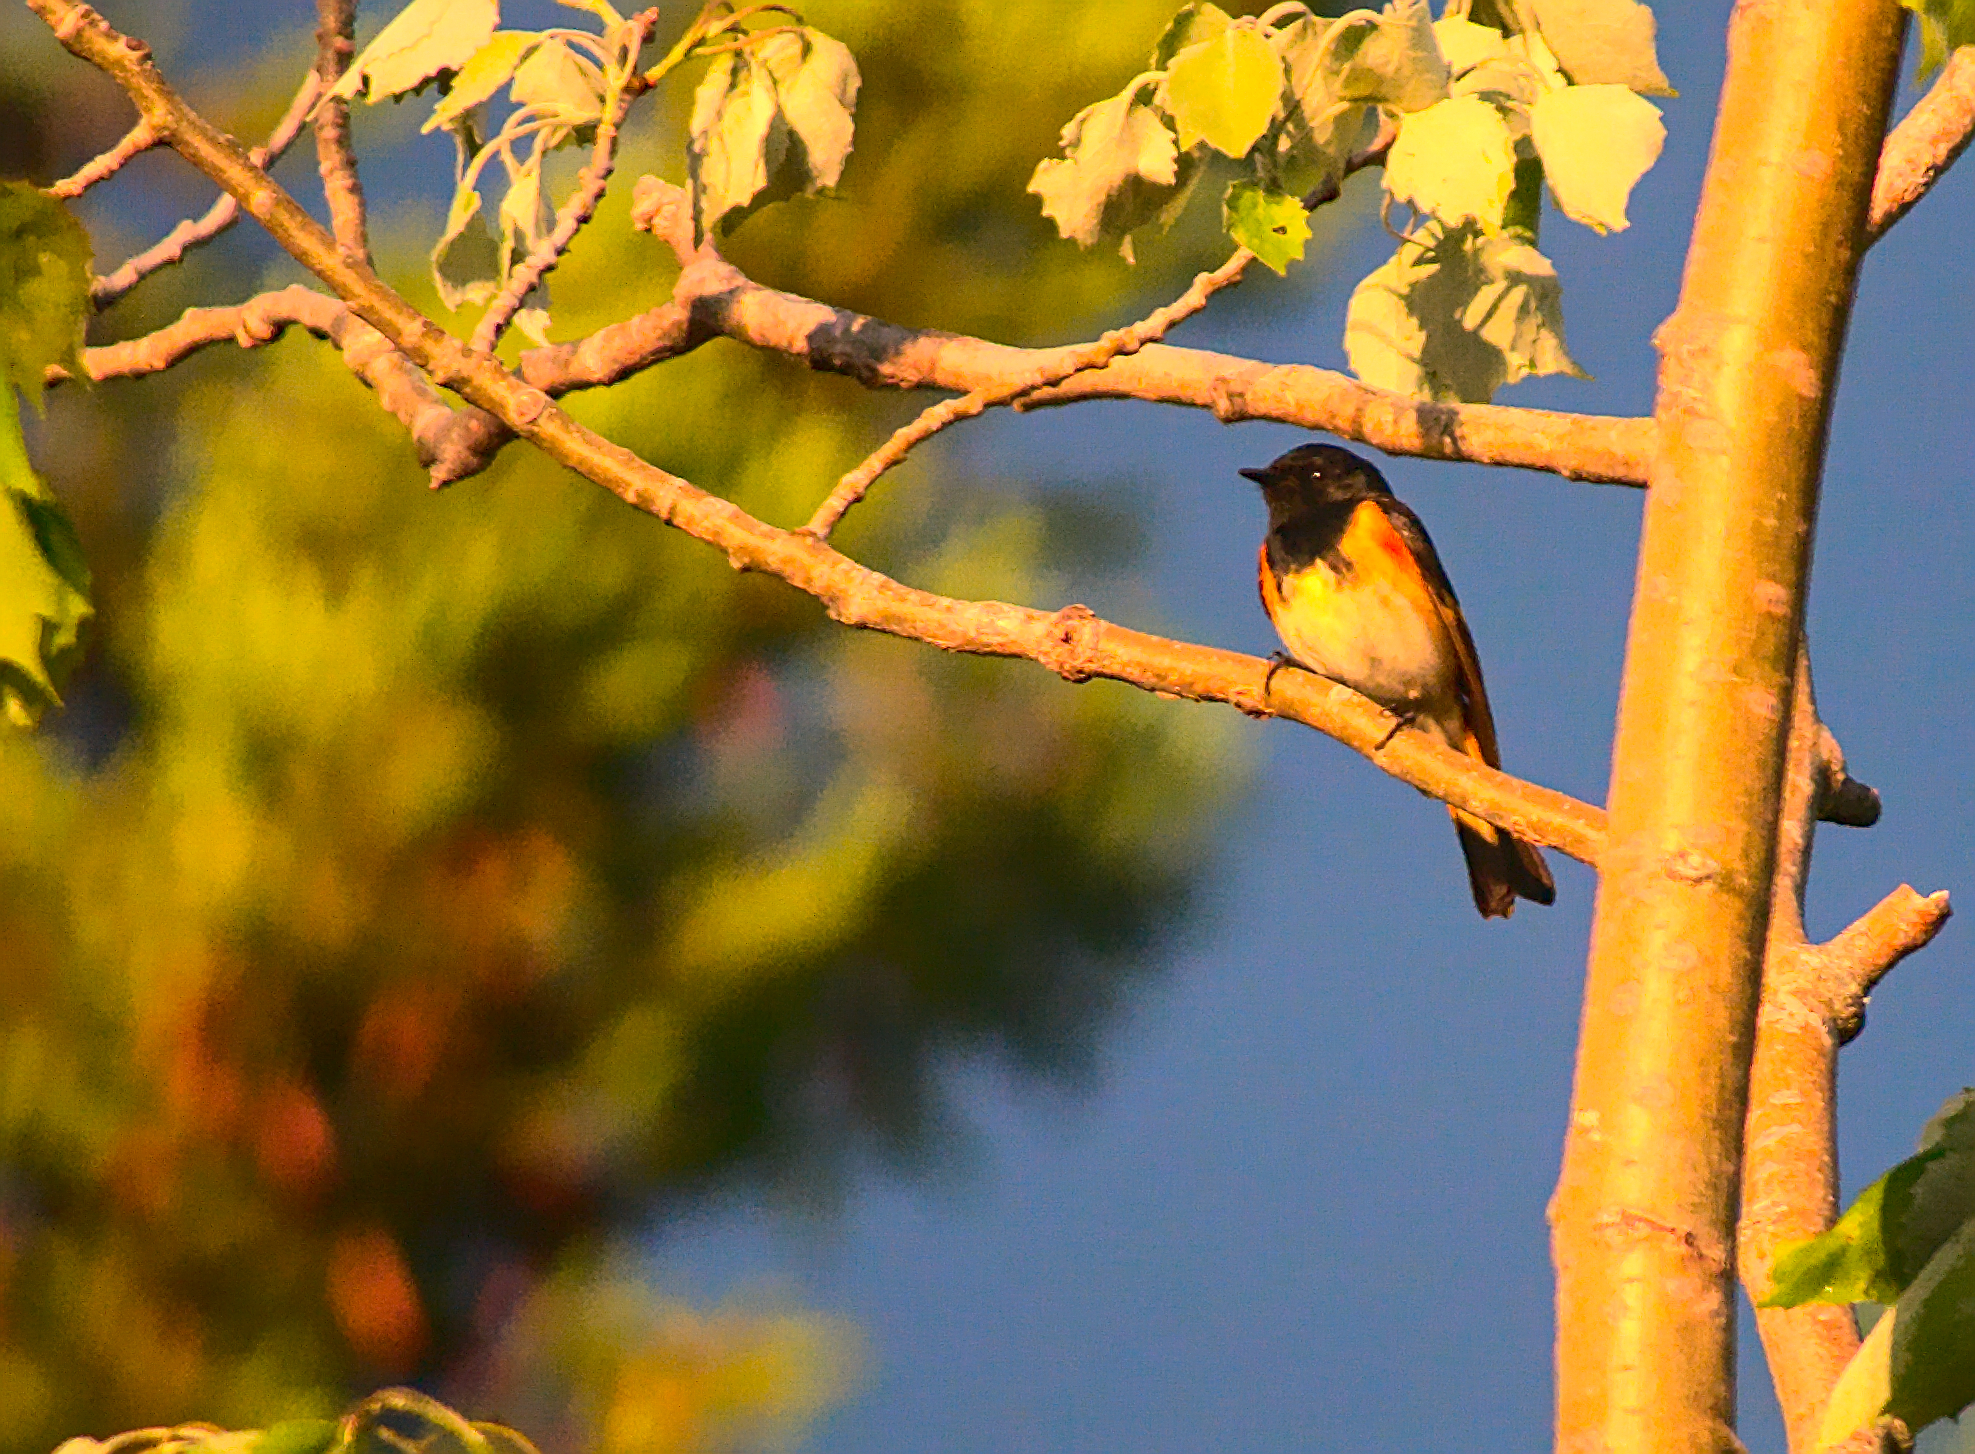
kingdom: Animalia
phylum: Chordata
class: Aves
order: Passeriformes
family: Parulidae
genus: Setophaga
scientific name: Setophaga ruticilla
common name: American redstart
